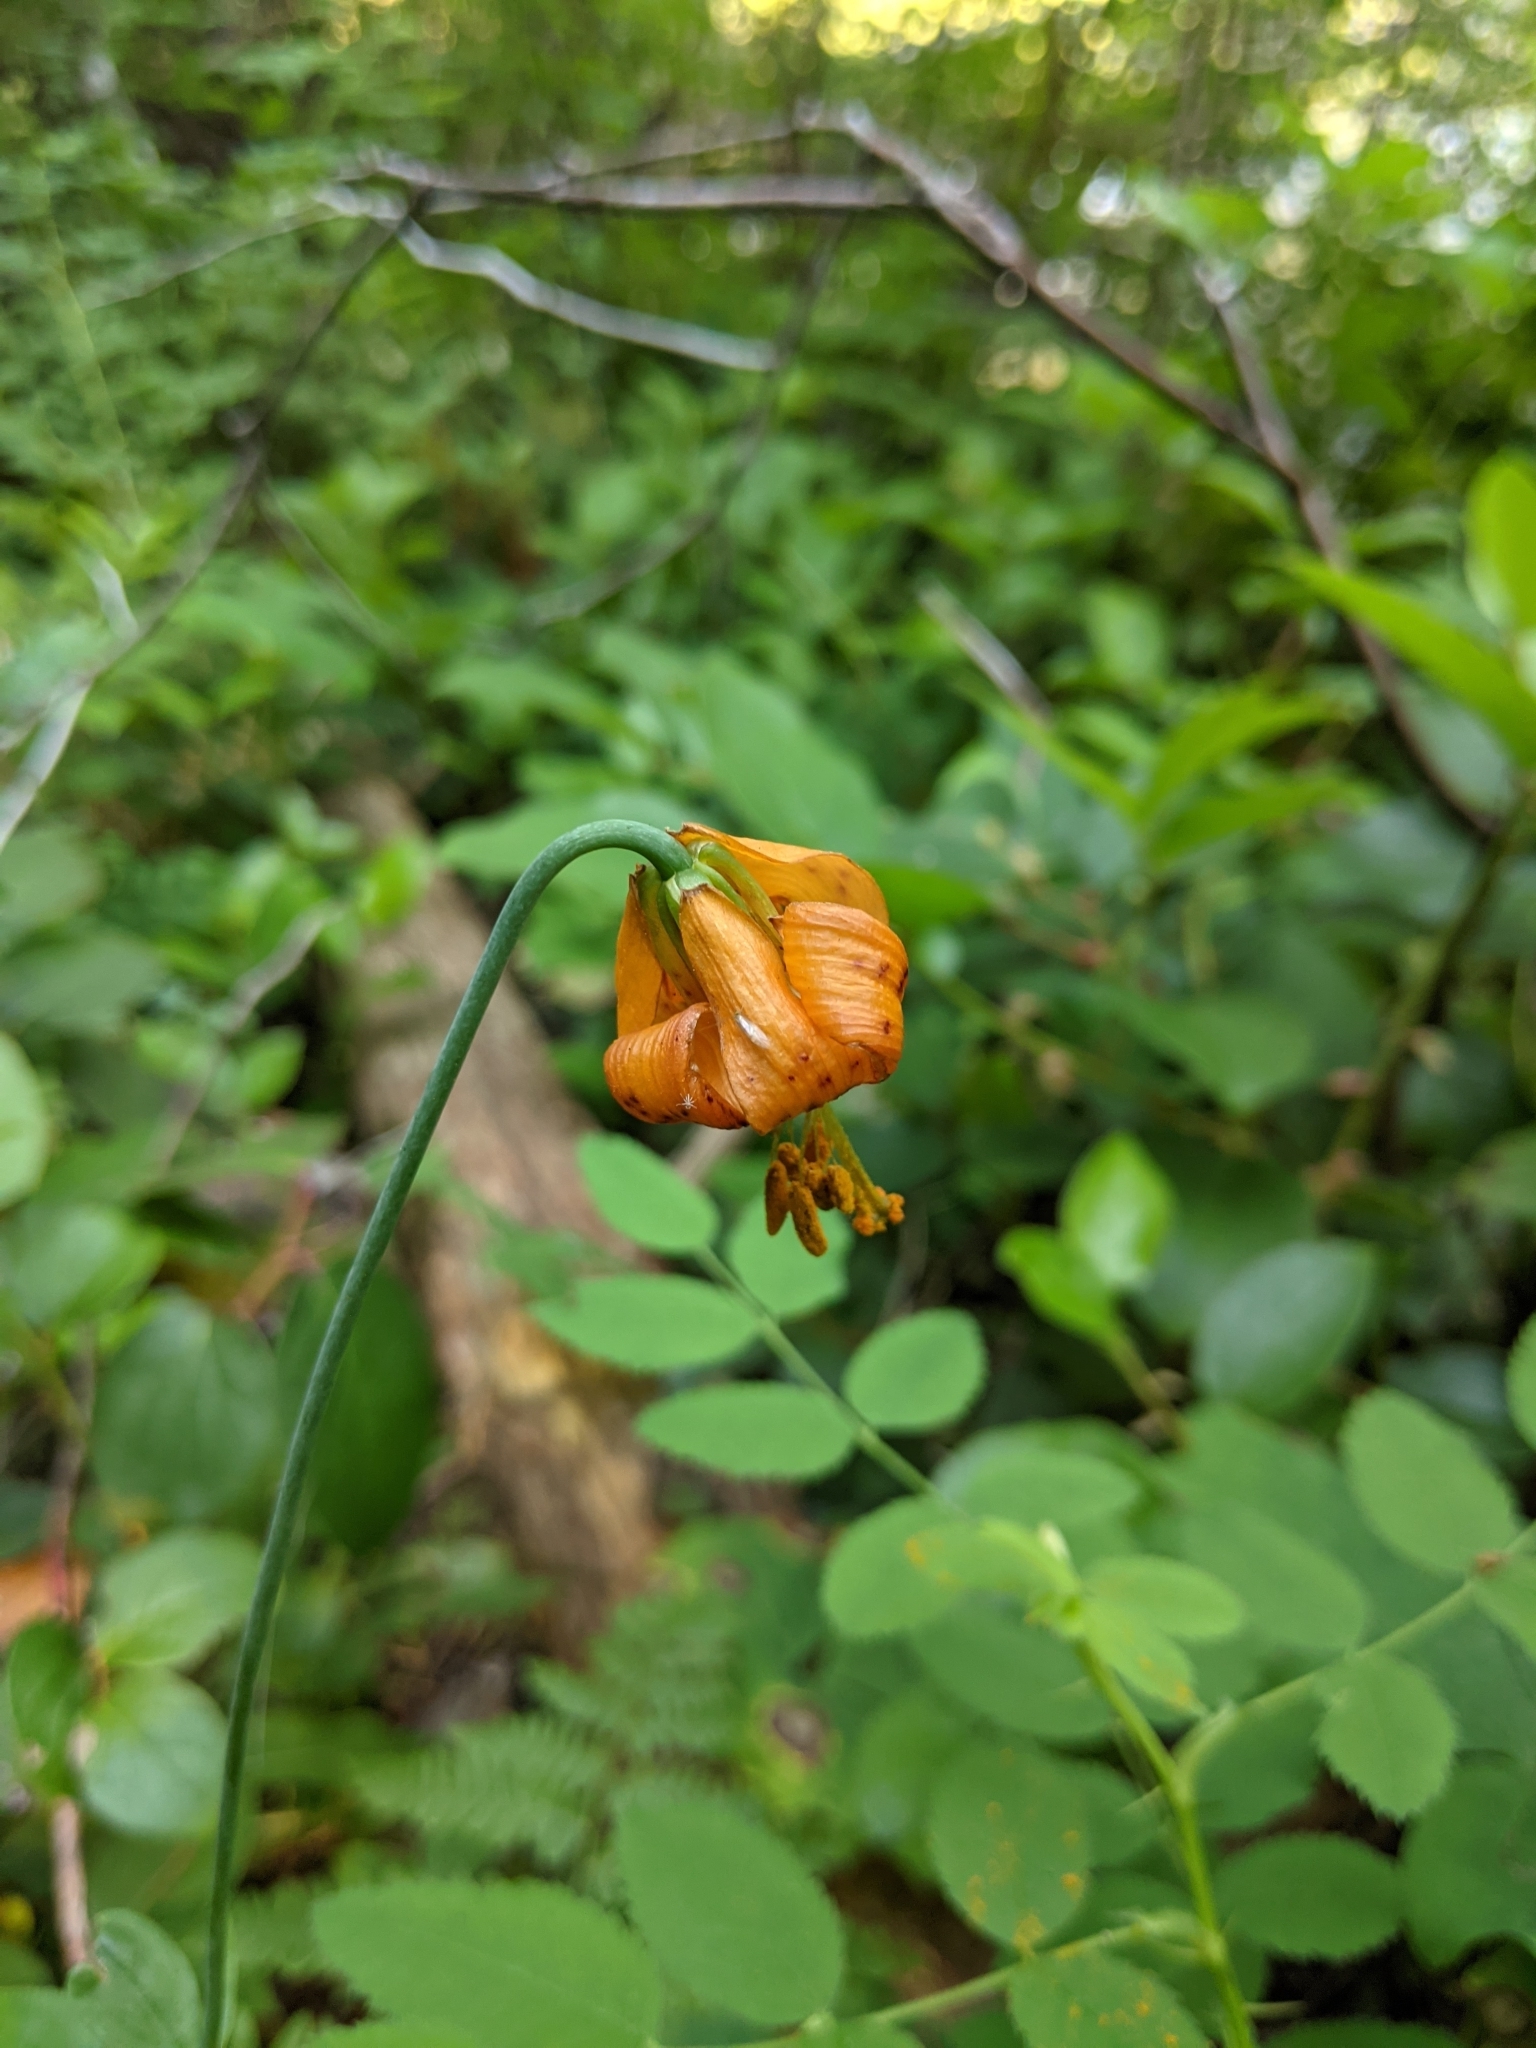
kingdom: Plantae
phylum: Tracheophyta
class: Liliopsida
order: Liliales
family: Liliaceae
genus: Lilium
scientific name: Lilium columbianum
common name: Columbia lily
